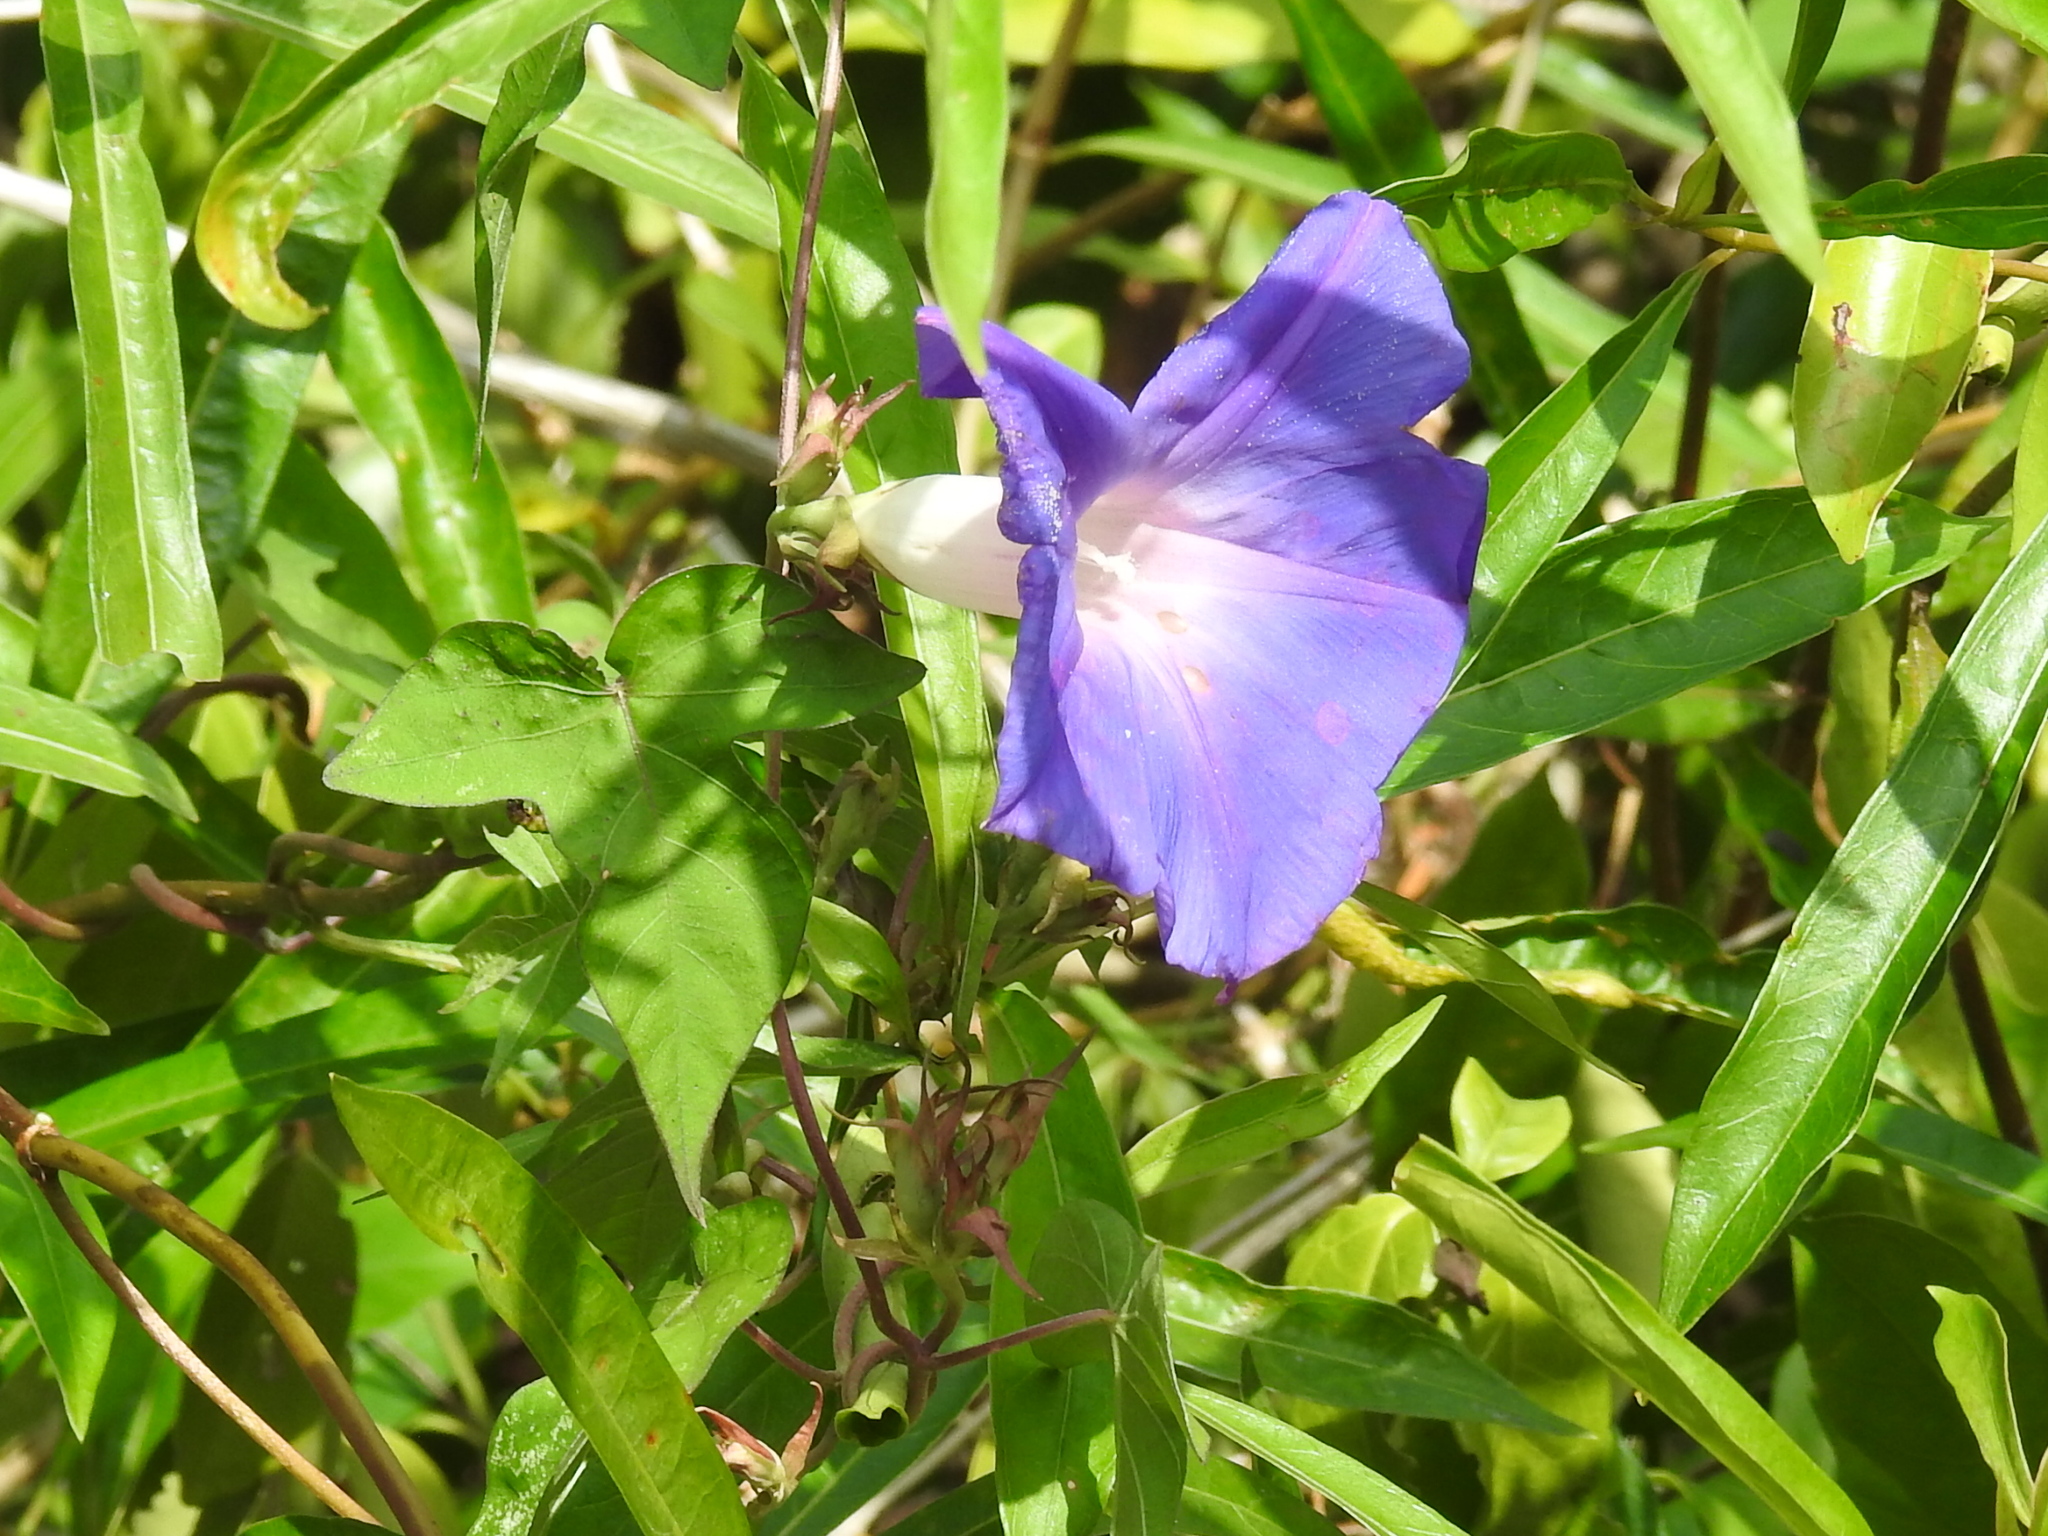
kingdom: Plantae
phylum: Tracheophyta
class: Magnoliopsida
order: Solanales
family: Convolvulaceae
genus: Ipomoea
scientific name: Ipomoea indica
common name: Blue dawnflower
